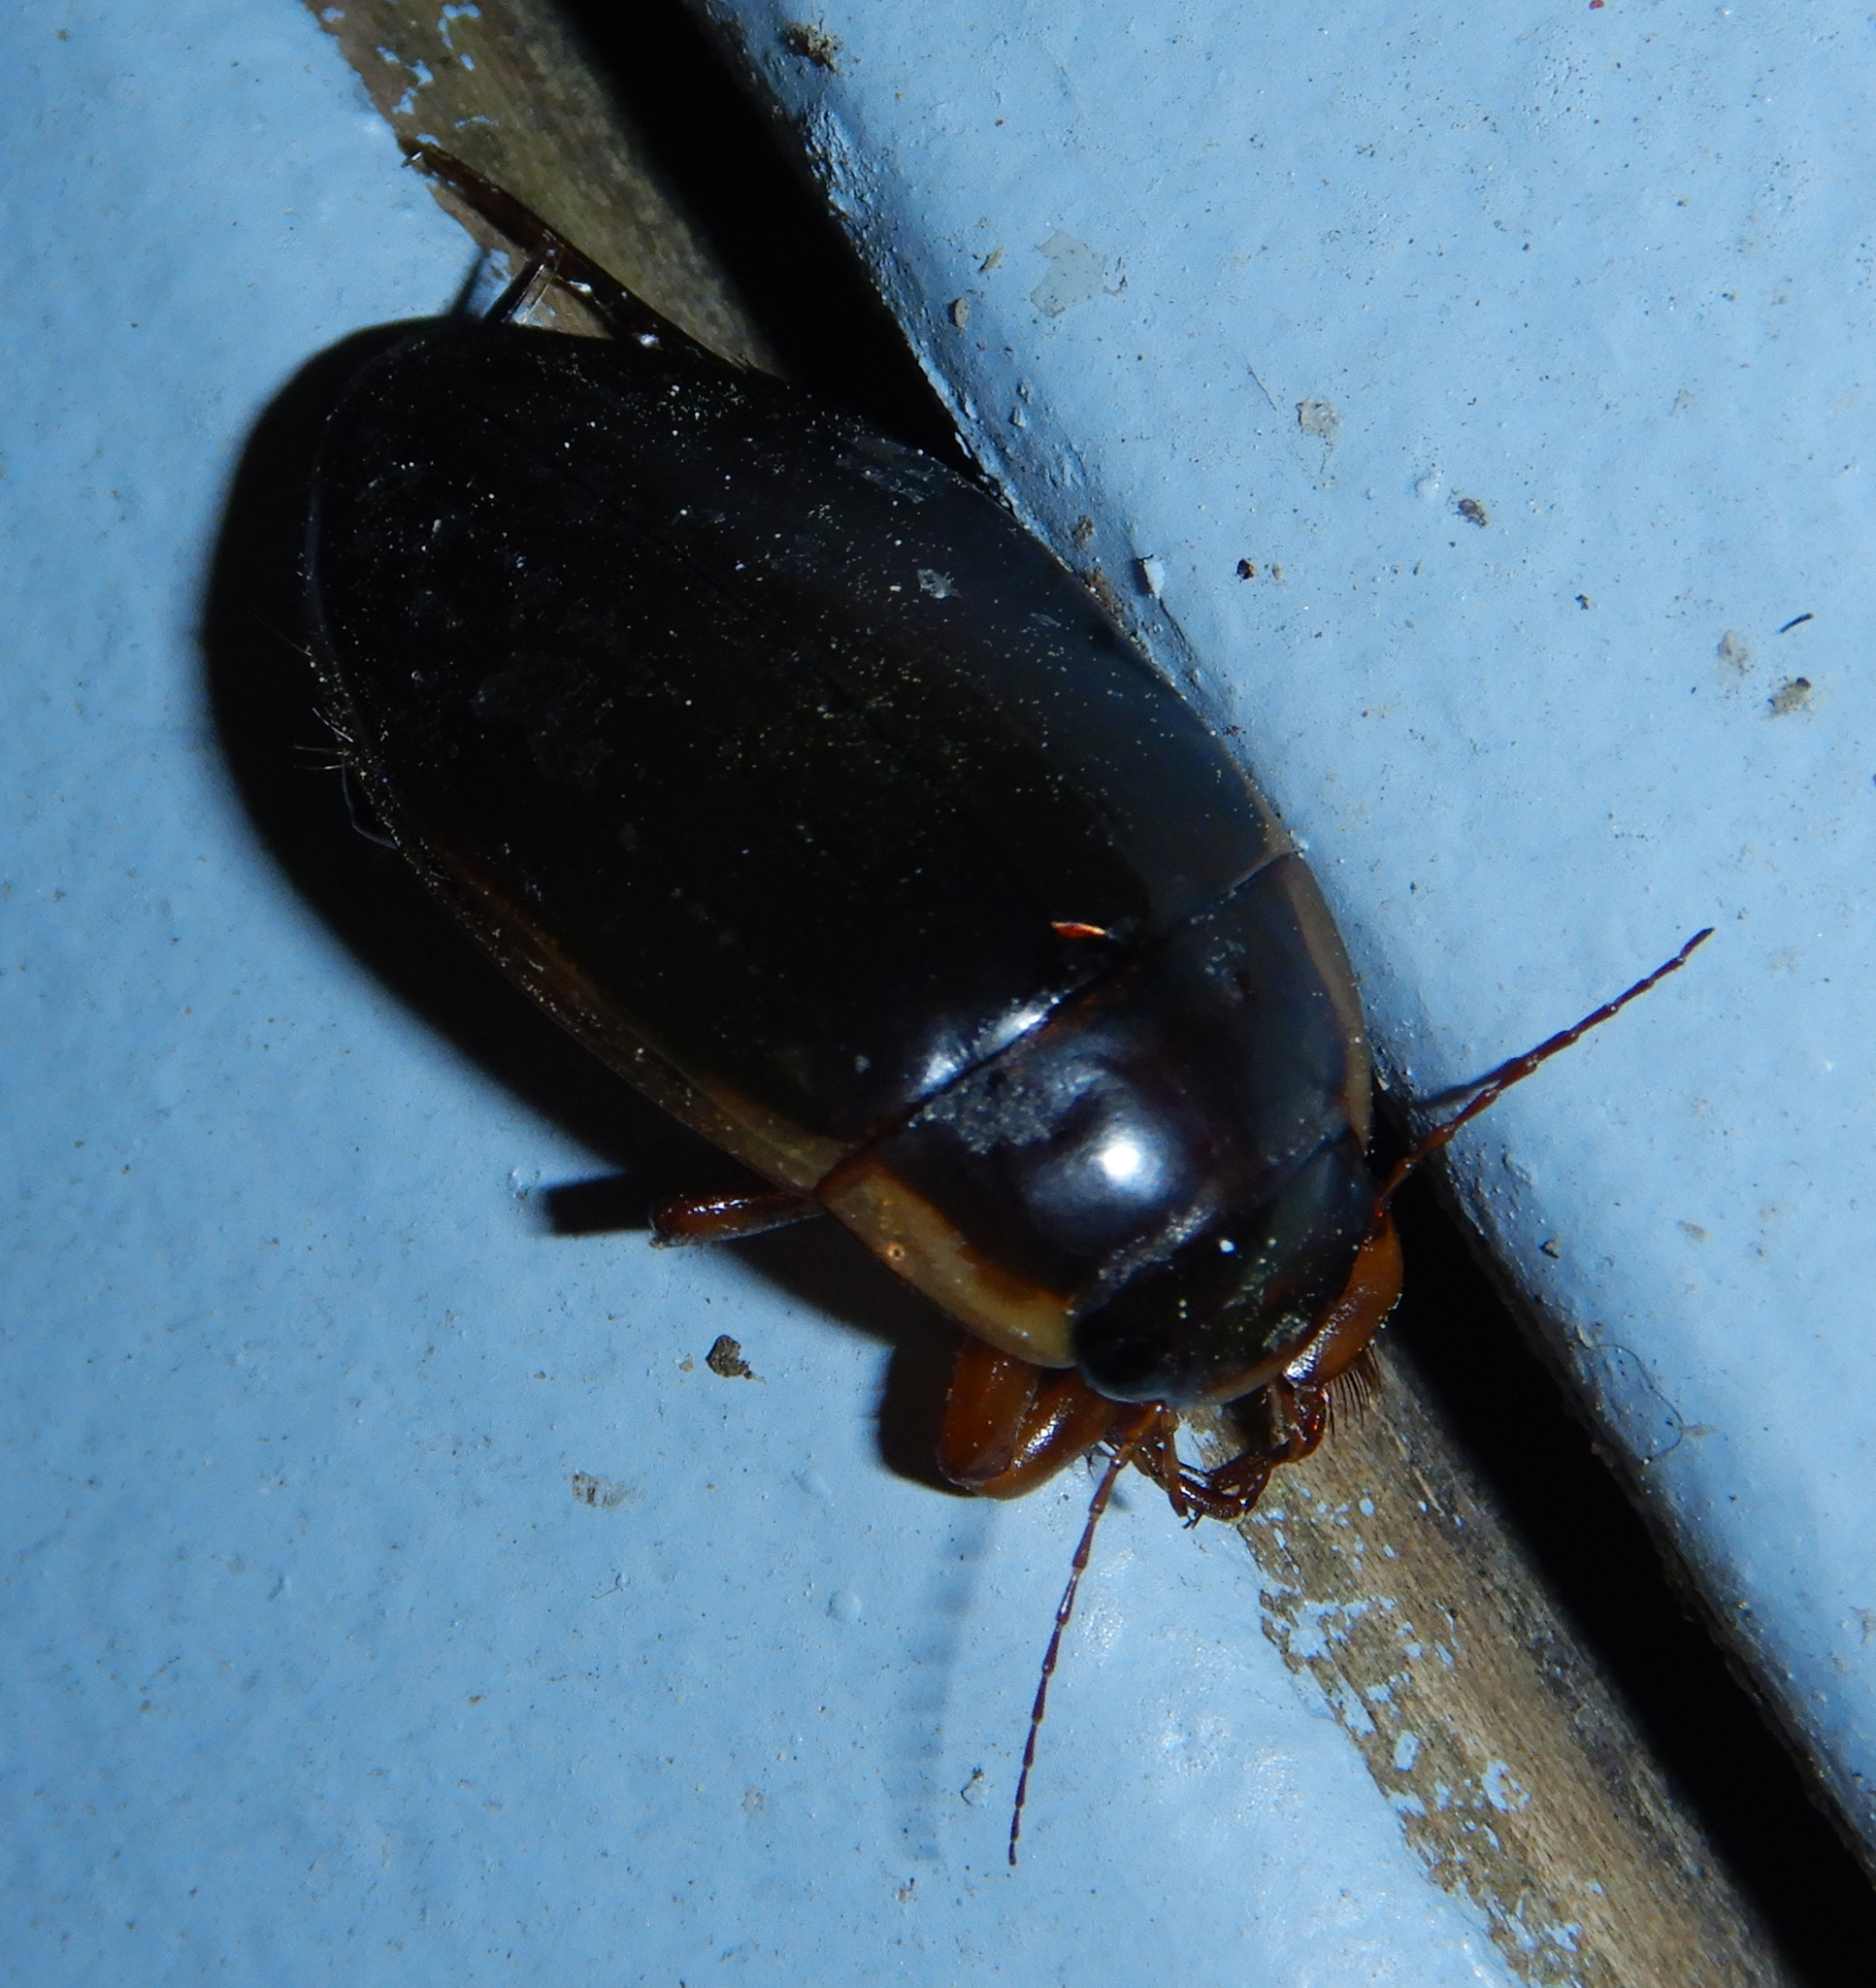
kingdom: Animalia
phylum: Arthropoda
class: Insecta
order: Coleoptera
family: Dytiscidae
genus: Dytiscus
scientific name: Dytiscus
